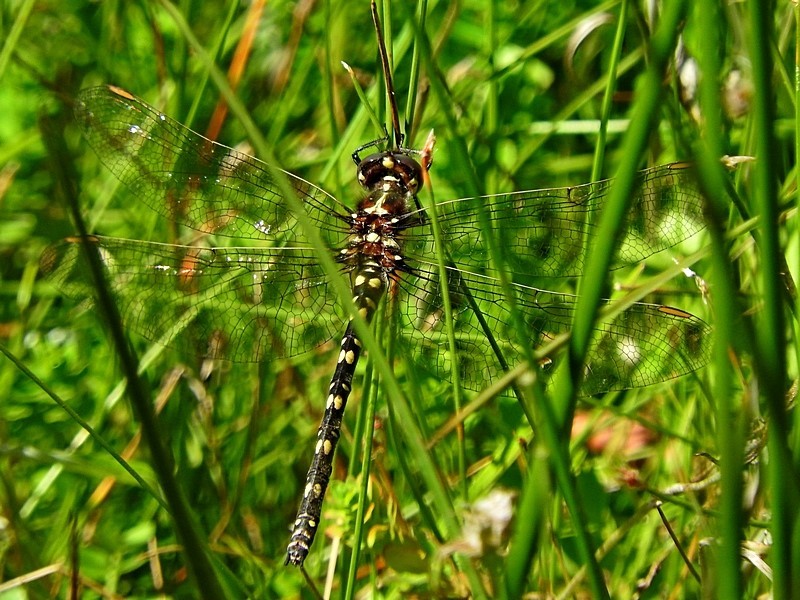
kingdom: Animalia
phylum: Arthropoda
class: Insecta
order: Odonata
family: Synthemistidae
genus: Synthemis
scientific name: Synthemis eustalacta
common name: Swamp tigertail
